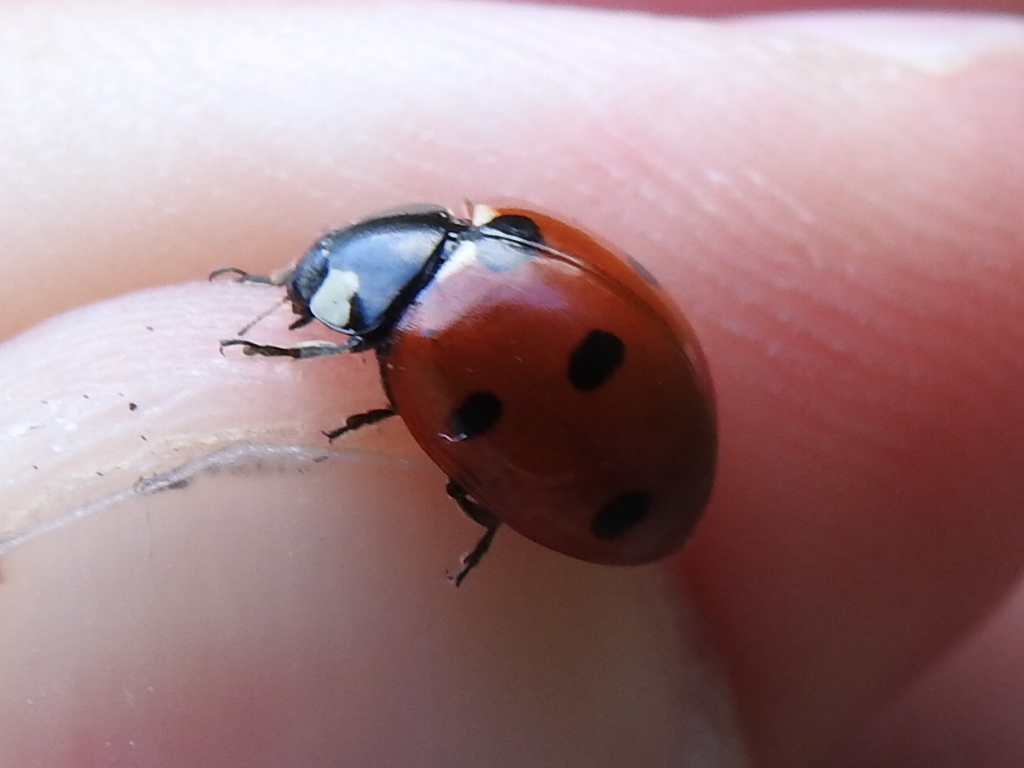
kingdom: Animalia
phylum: Arthropoda
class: Insecta
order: Coleoptera
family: Coccinellidae
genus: Coccinella
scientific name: Coccinella septempunctata
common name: Sevenspotted lady beetle
